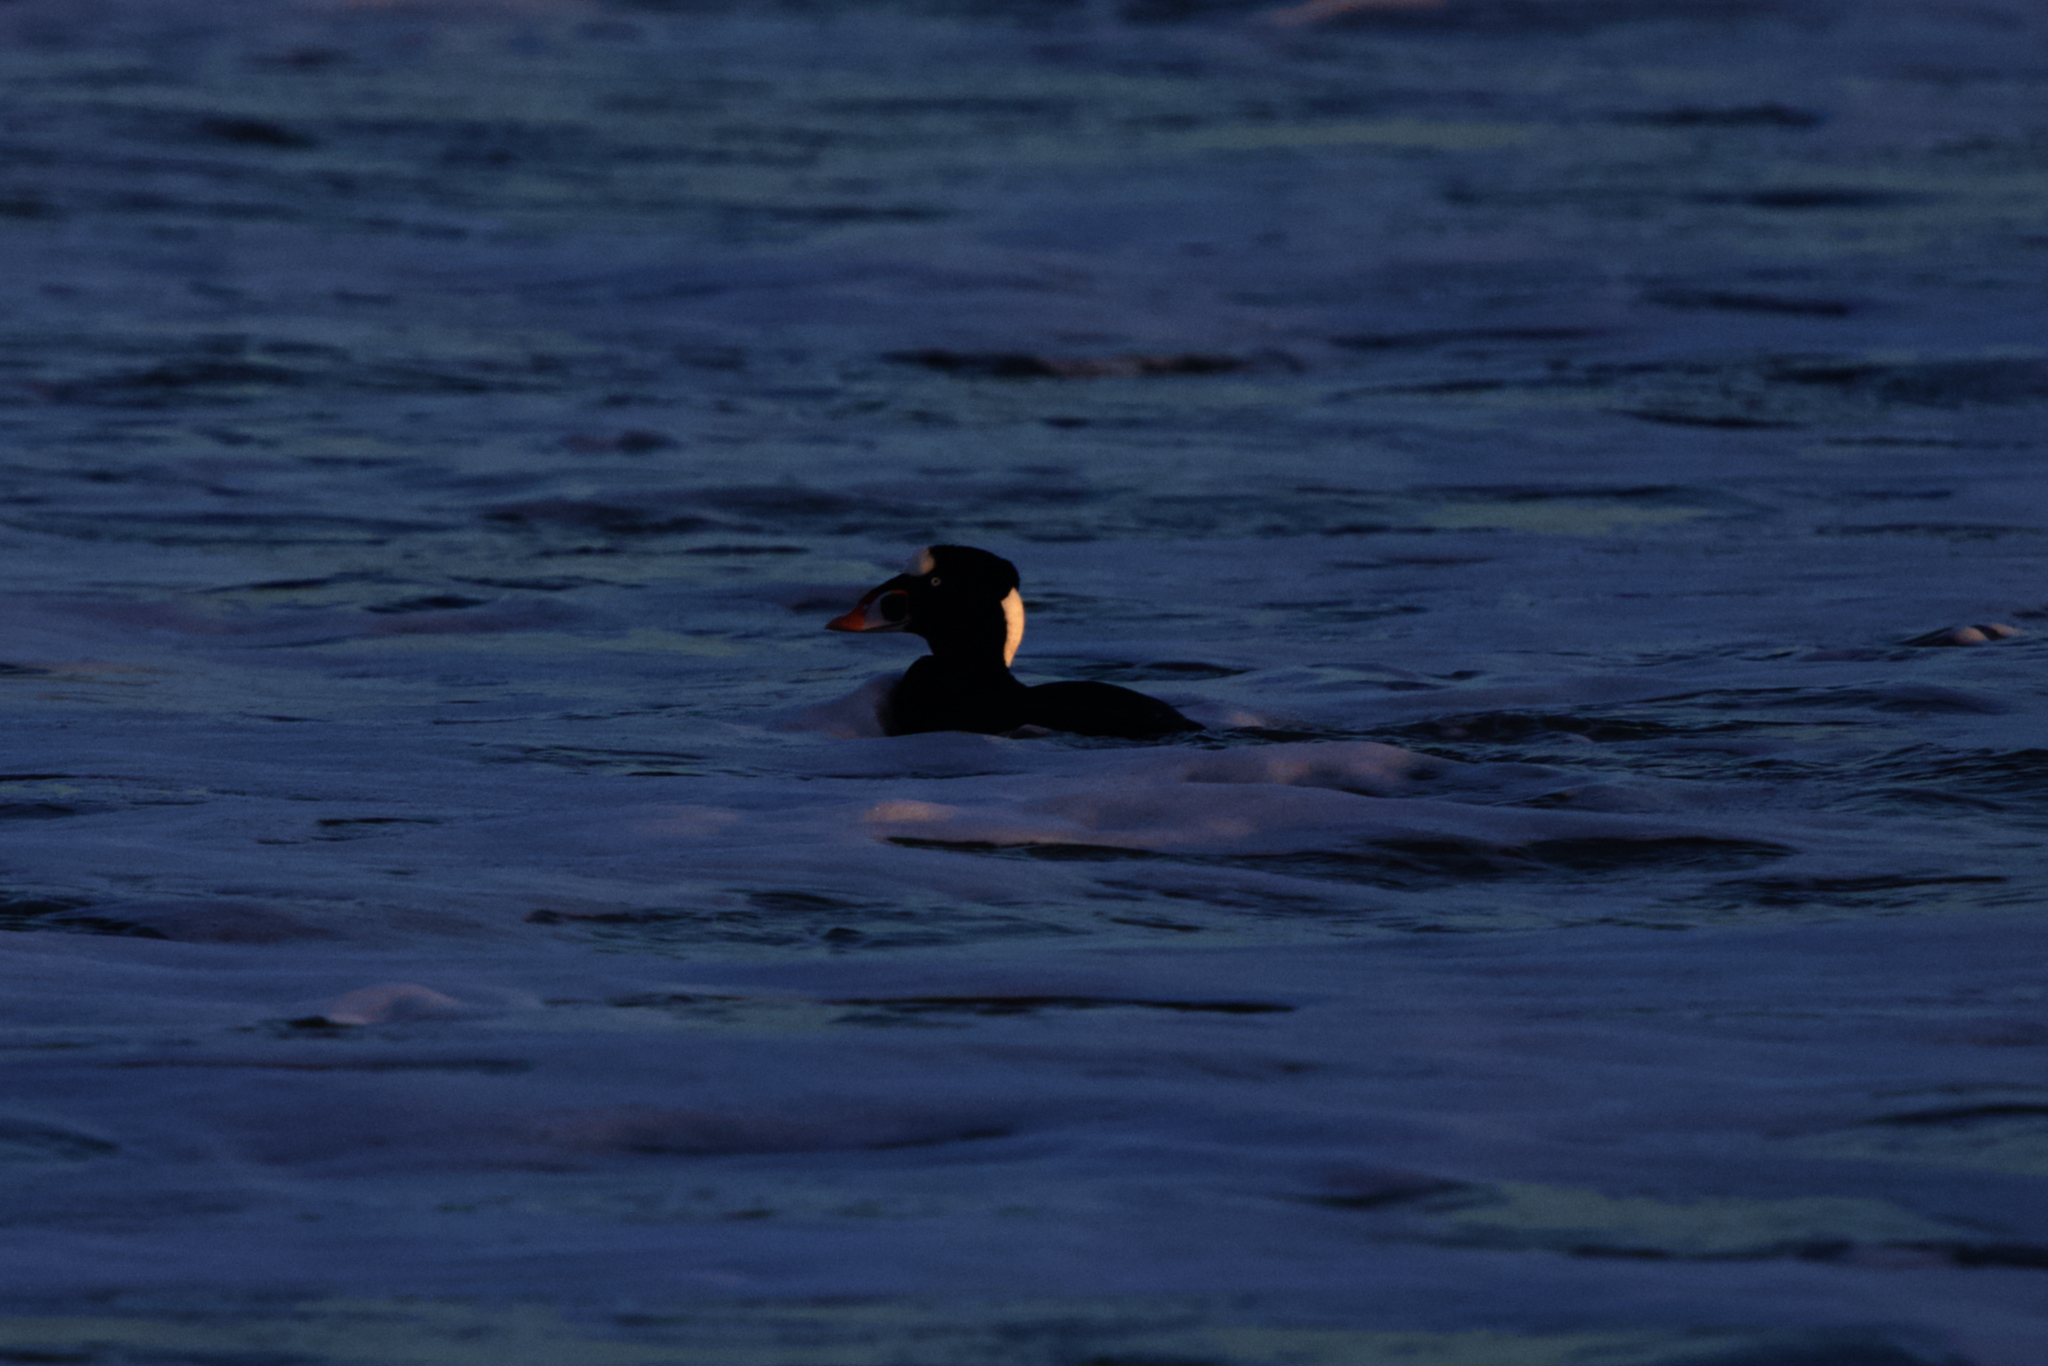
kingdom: Animalia
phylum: Chordata
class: Aves
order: Anseriformes
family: Anatidae
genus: Melanitta
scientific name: Melanitta perspicillata
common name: Surf scoter
